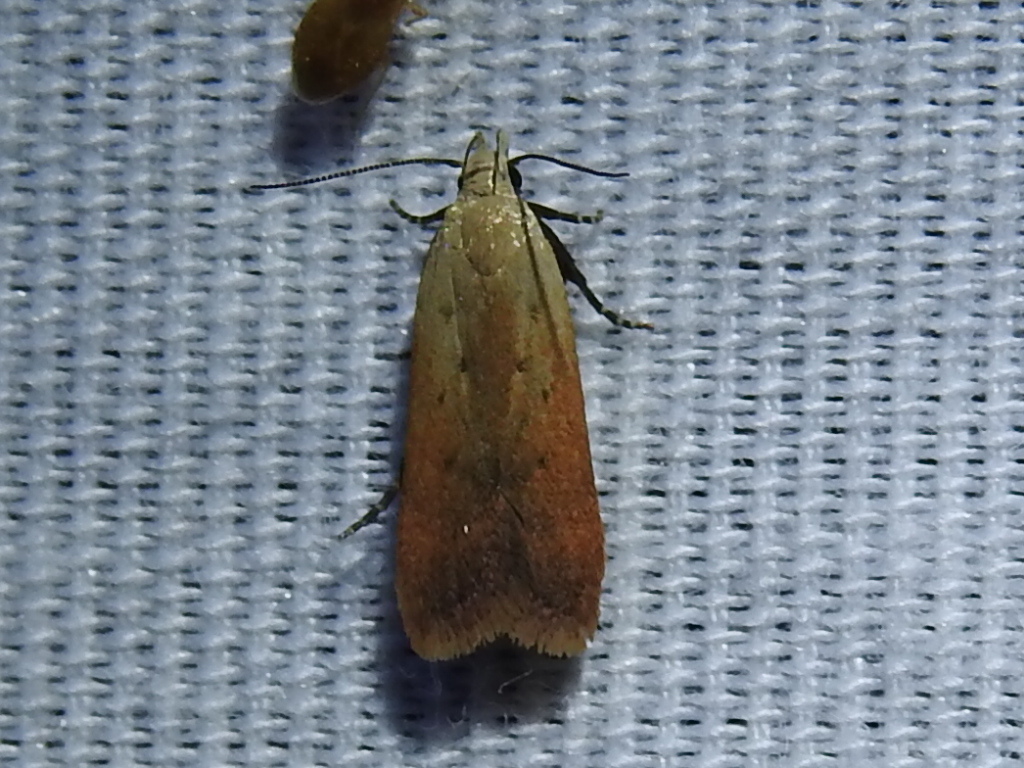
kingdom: Animalia
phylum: Arthropoda
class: Insecta
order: Lepidoptera
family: Gelechiidae
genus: Anacampsis
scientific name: Anacampsis fullonella
